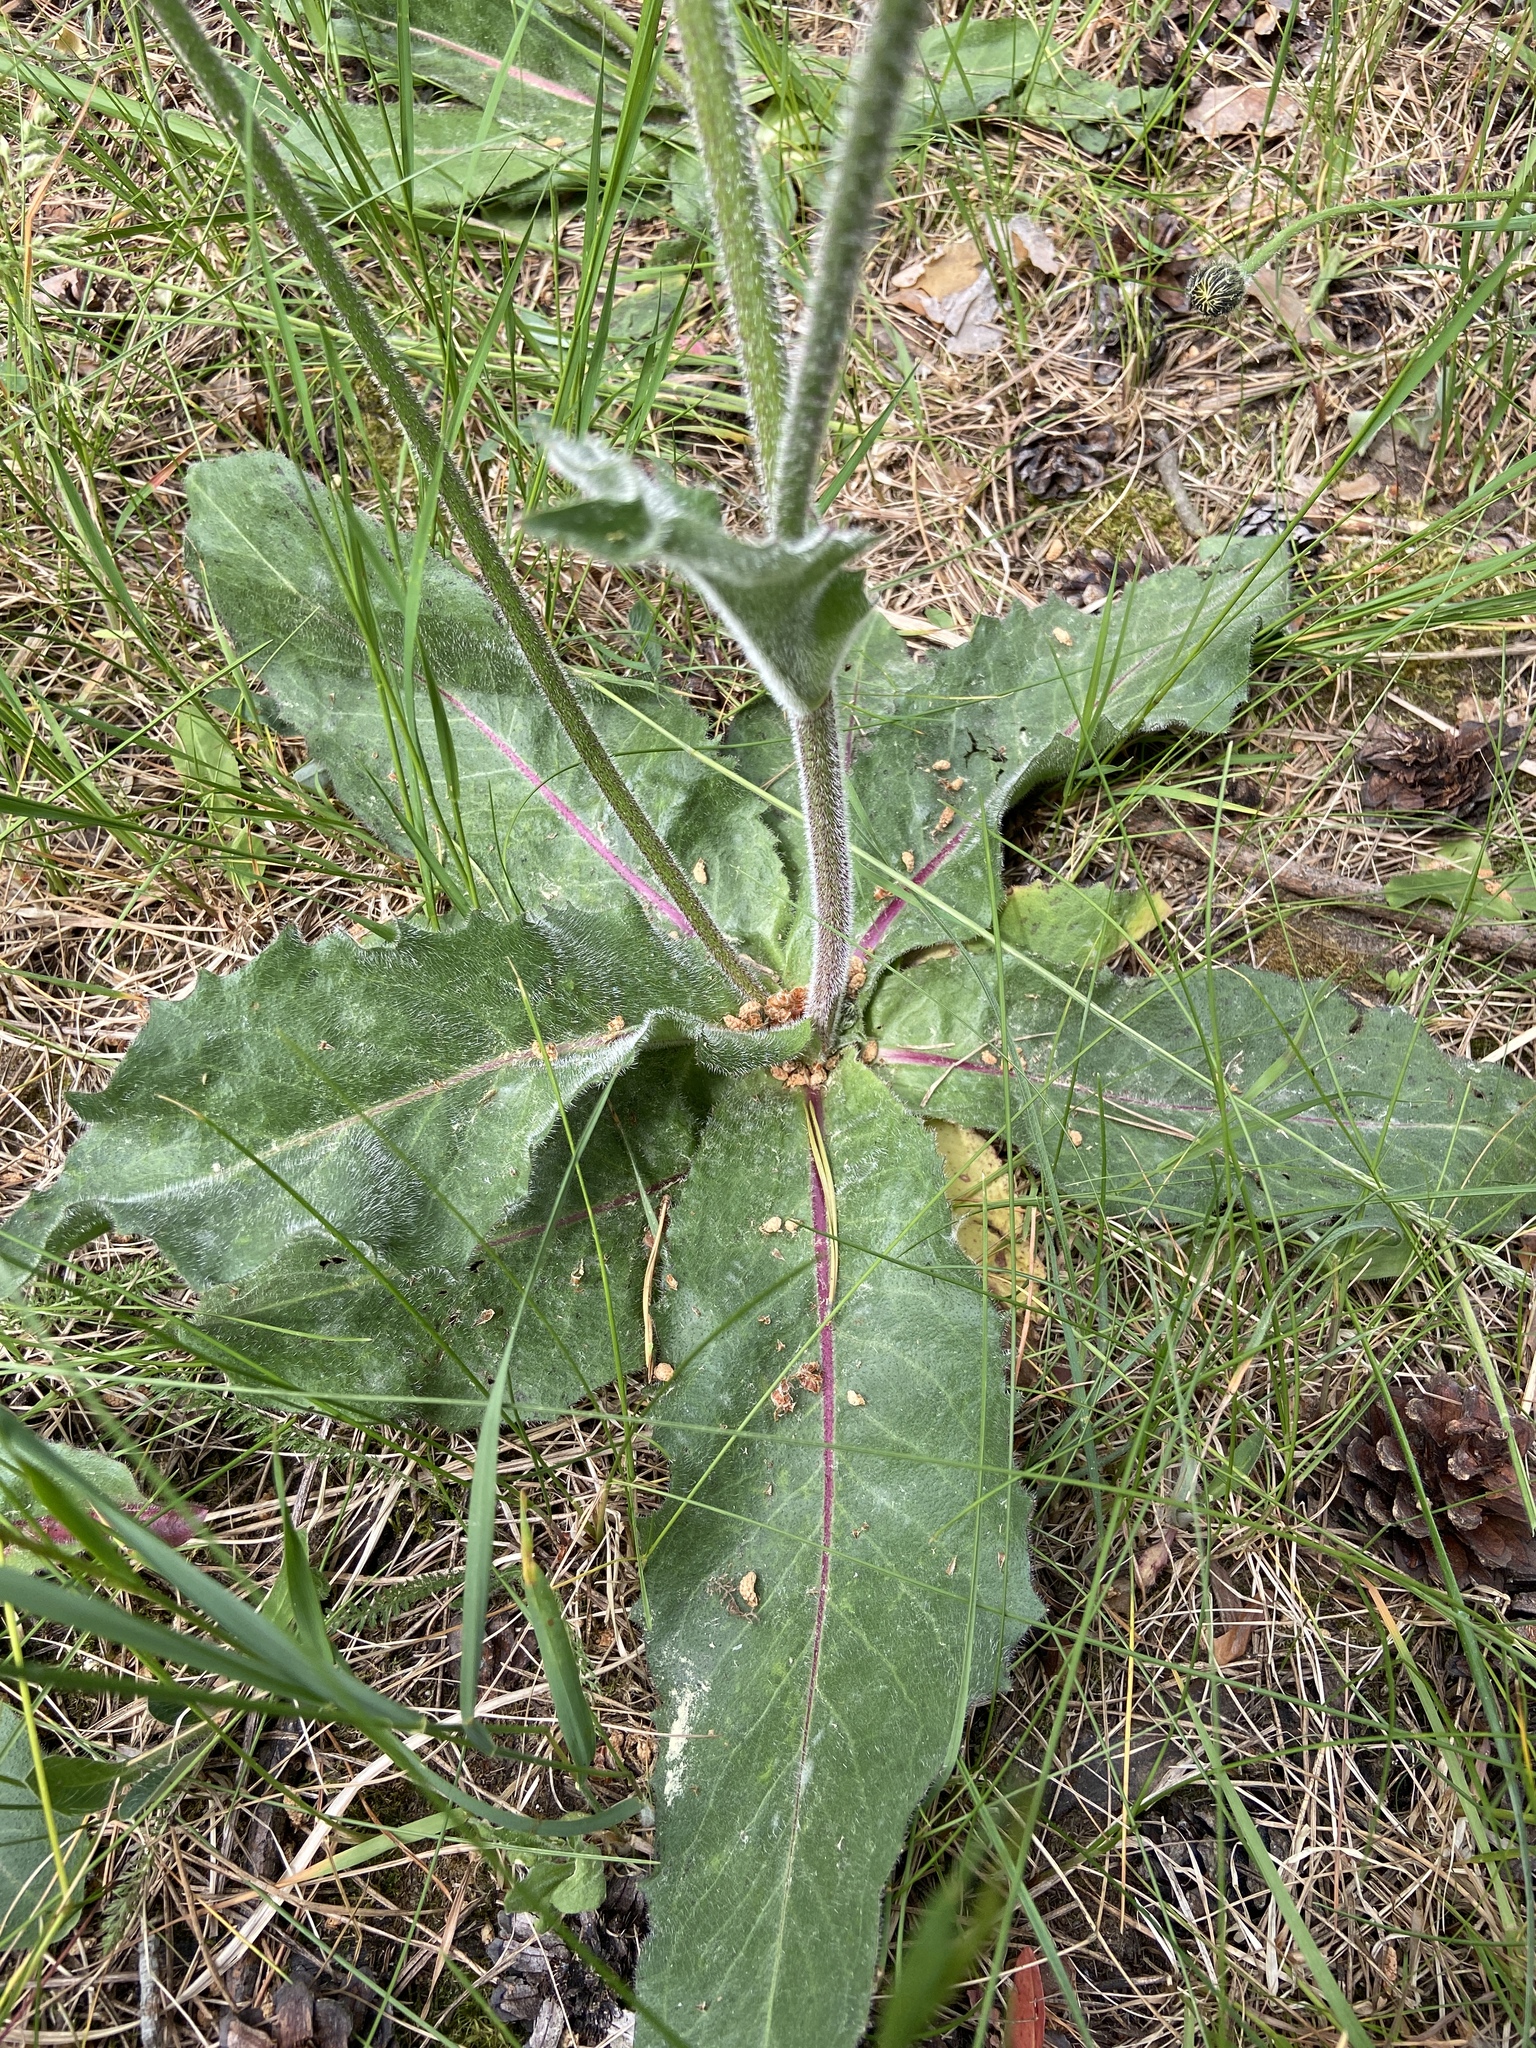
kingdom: Plantae
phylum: Tracheophyta
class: Magnoliopsida
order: Asterales
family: Asteraceae
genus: Trommsdorffia
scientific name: Trommsdorffia maculata
